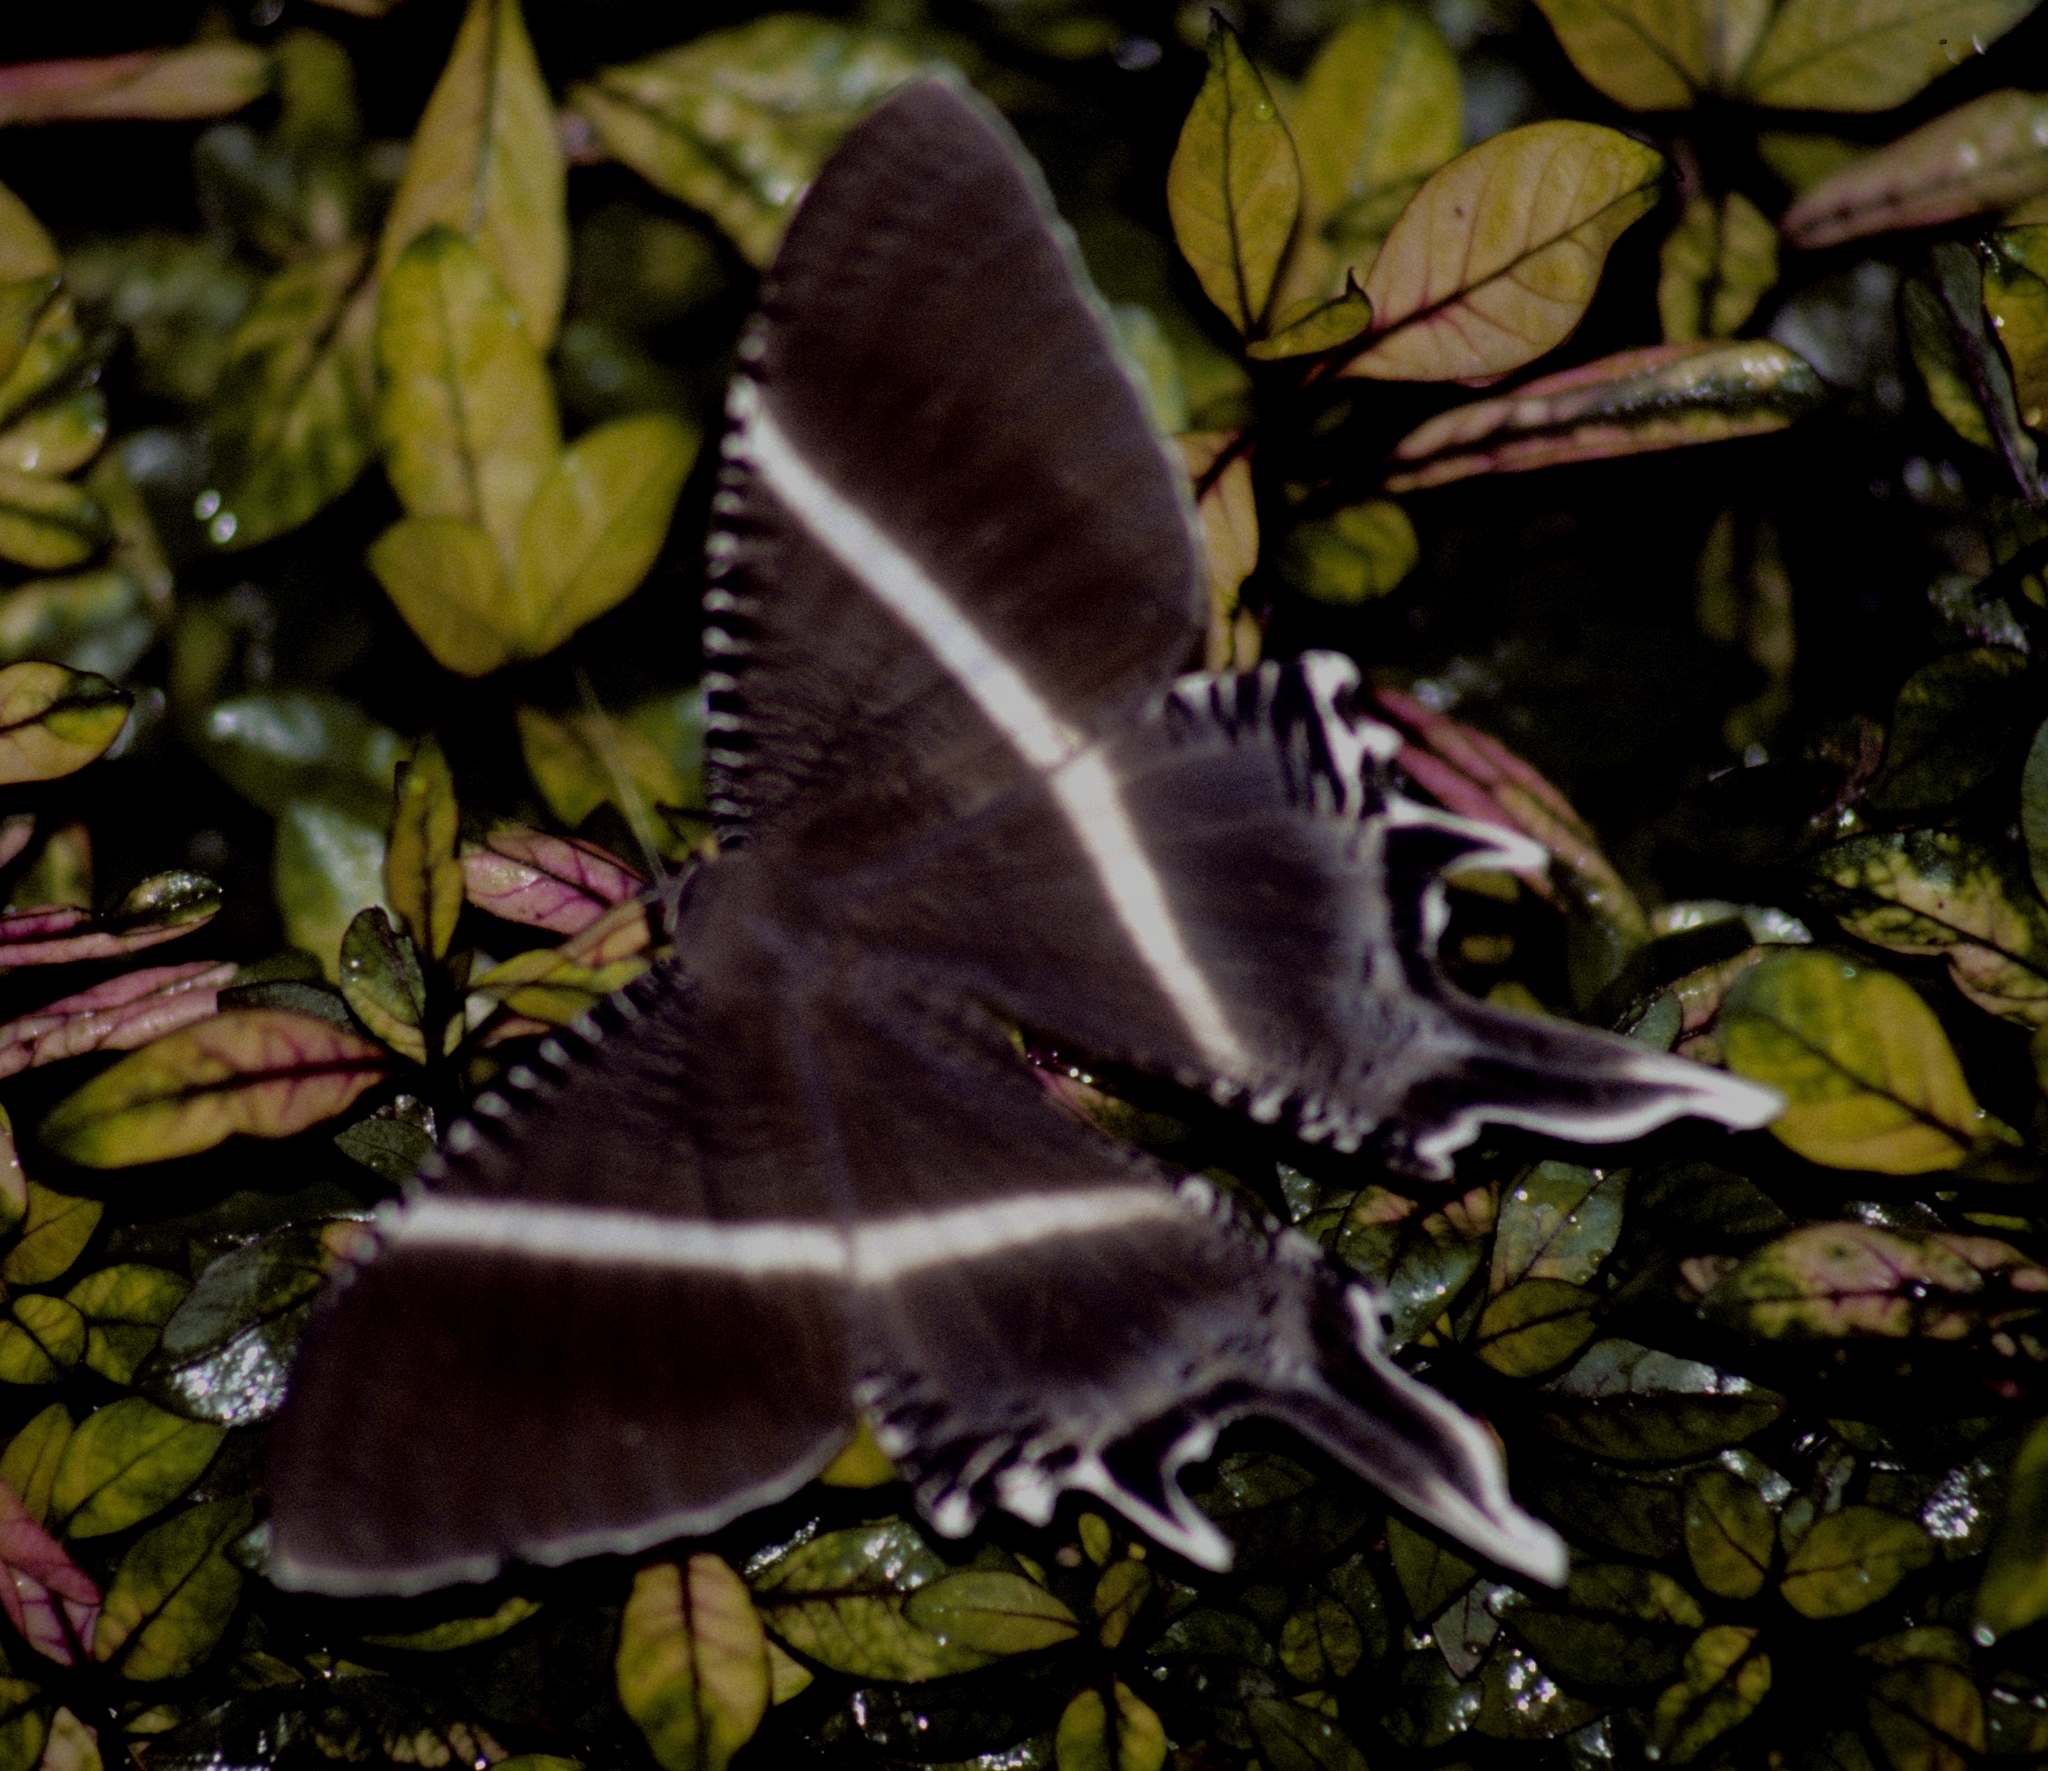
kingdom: Animalia
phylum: Arthropoda
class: Insecta
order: Lepidoptera
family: Uraniidae
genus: Lyssa
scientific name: Lyssa zampa
